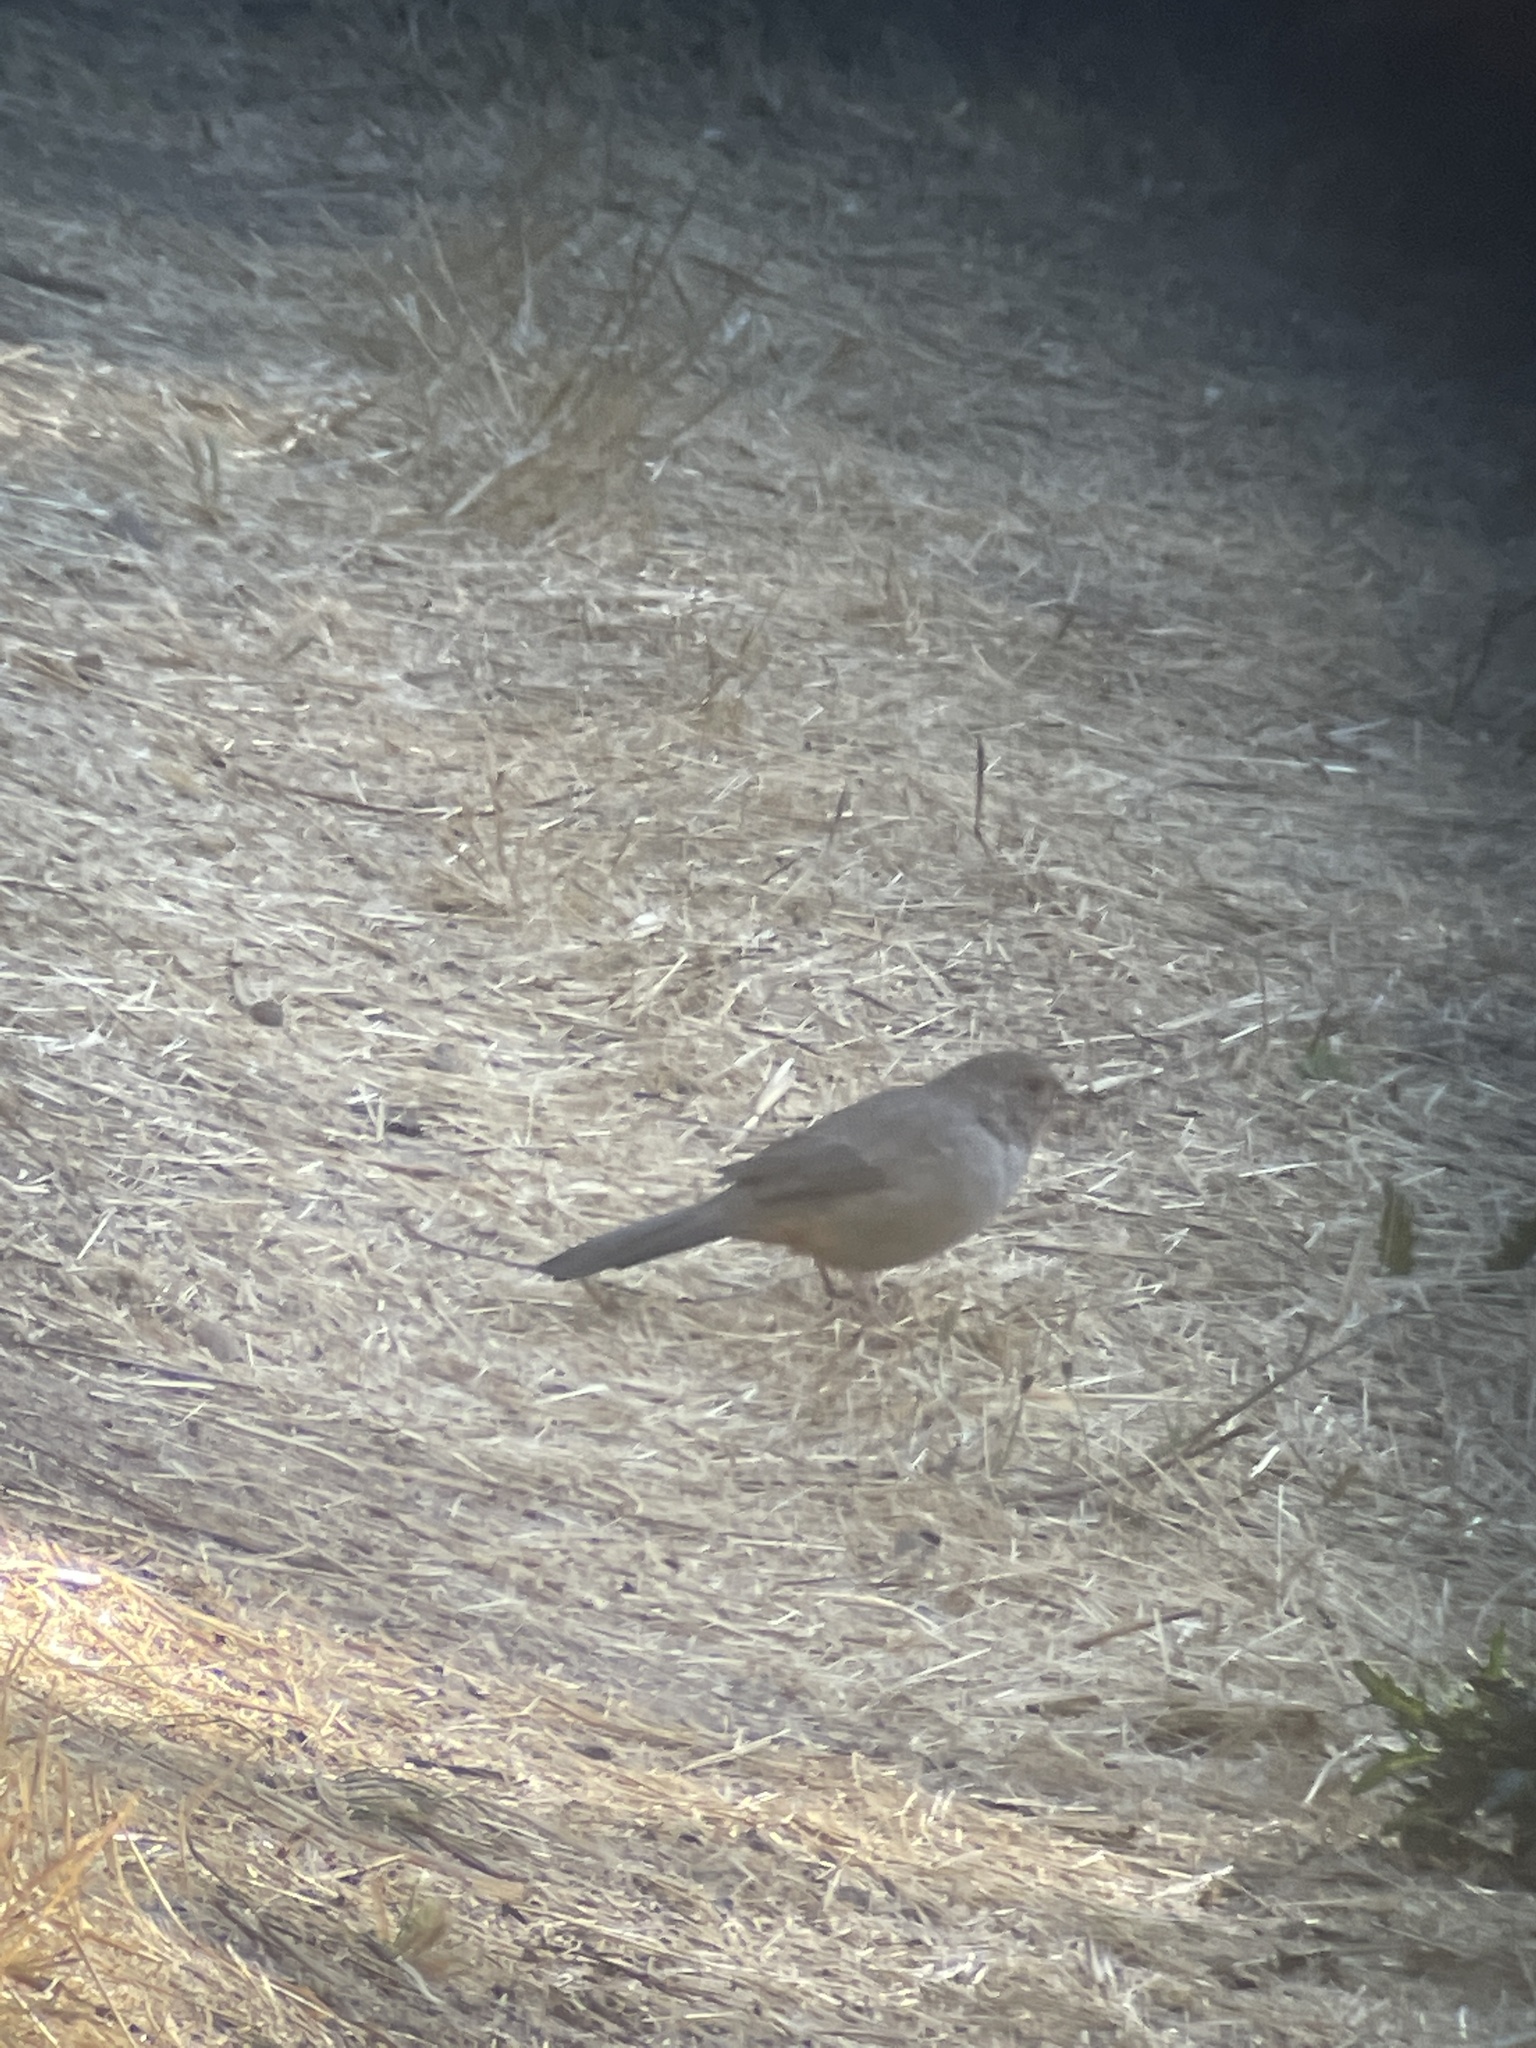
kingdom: Animalia
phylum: Chordata
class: Aves
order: Passeriformes
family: Passerellidae
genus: Melozone
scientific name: Melozone crissalis
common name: California towhee
